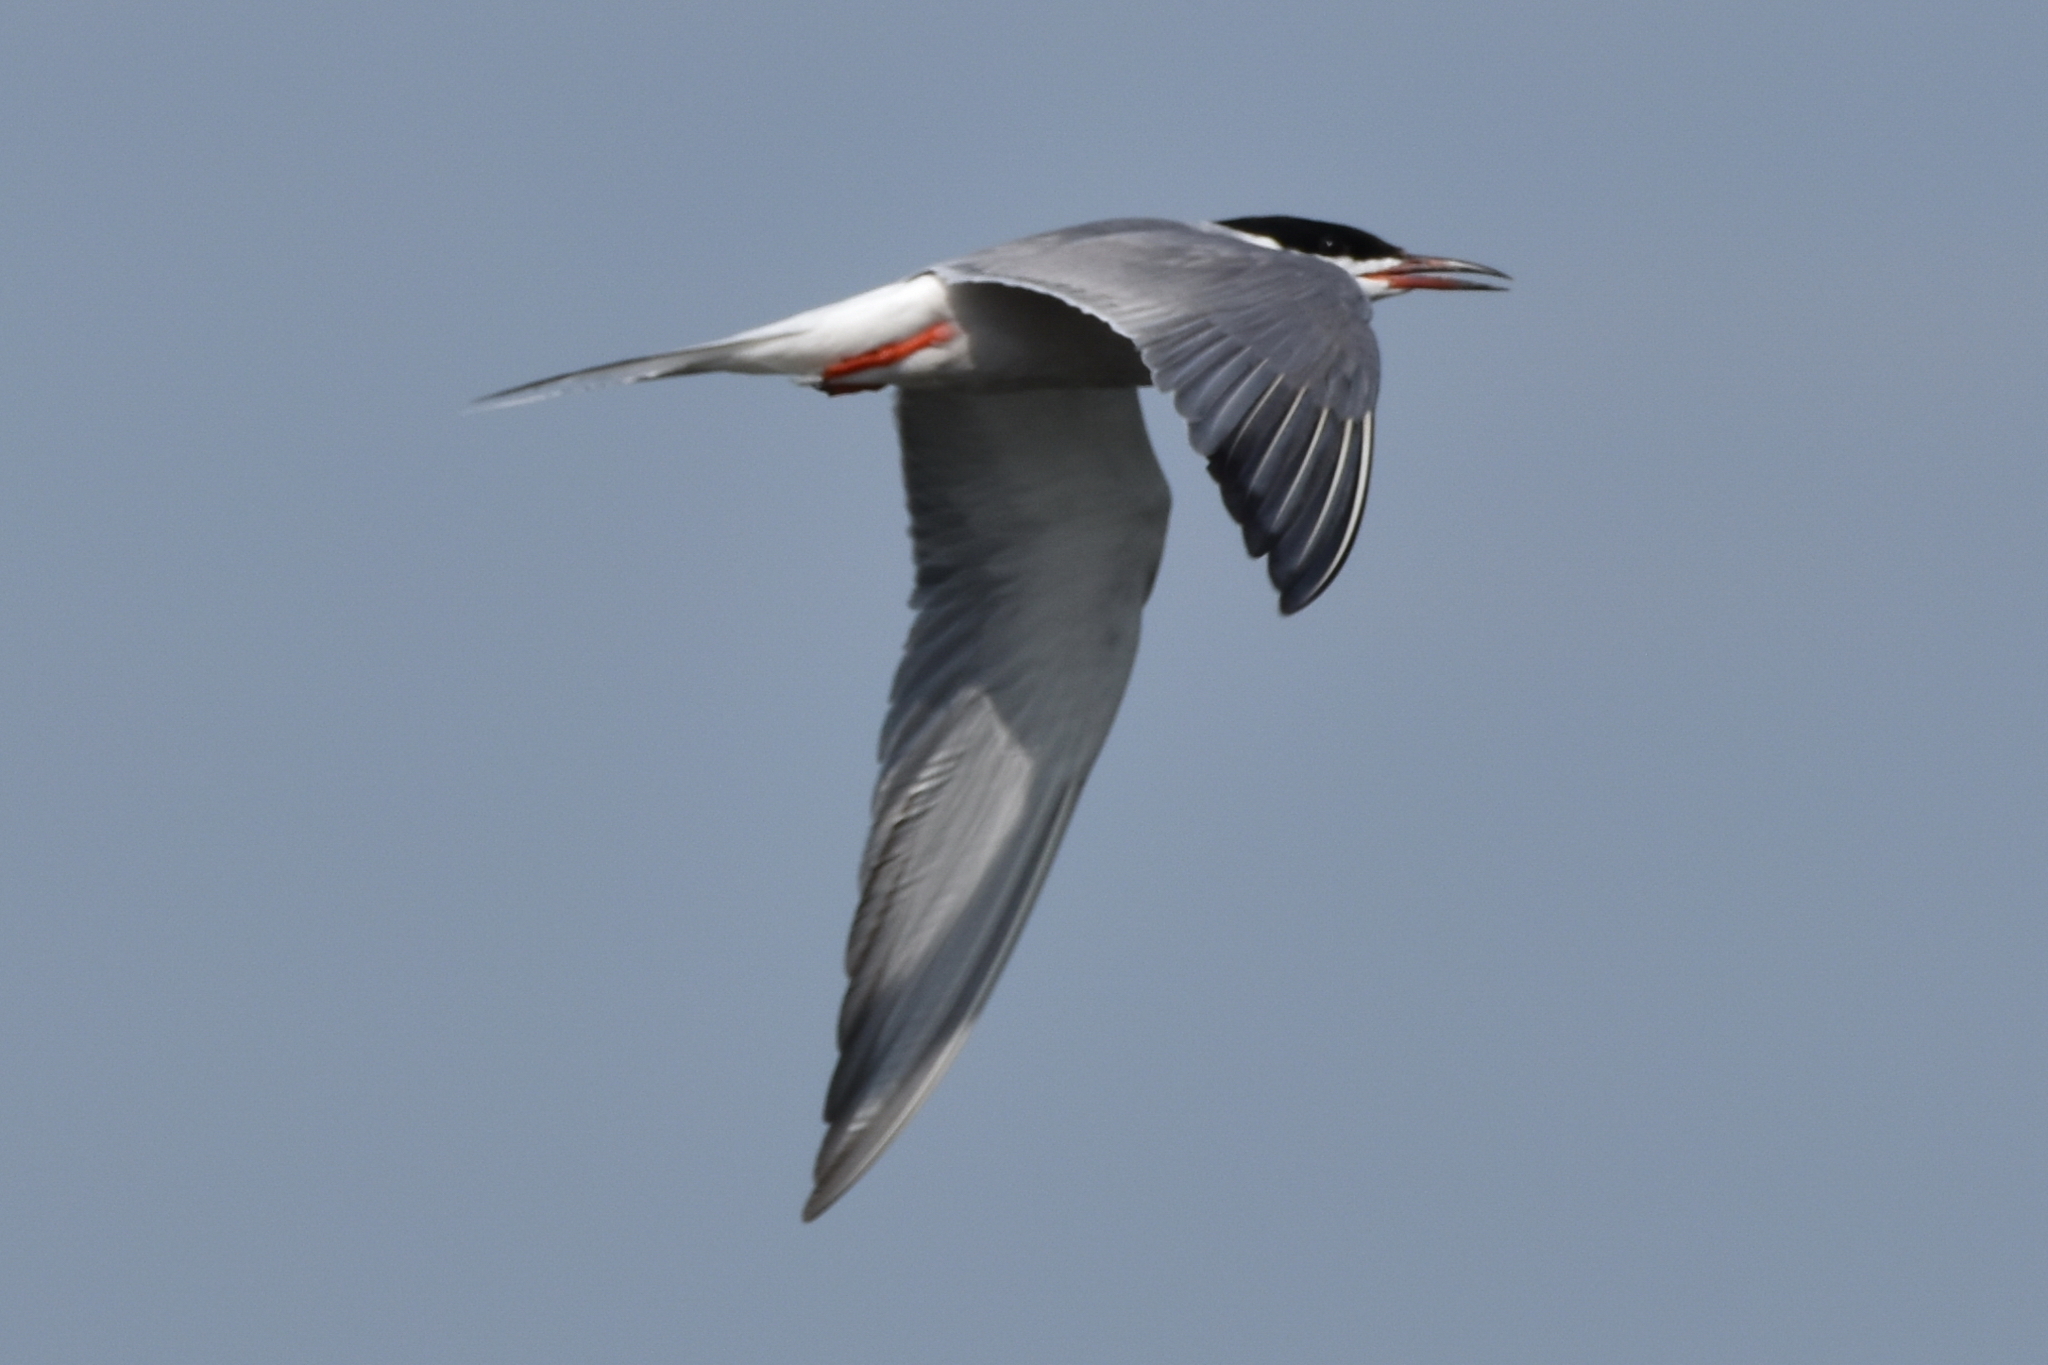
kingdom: Animalia
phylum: Chordata
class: Aves
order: Charadriiformes
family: Laridae
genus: Sterna
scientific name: Sterna hirundo
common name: Common tern
